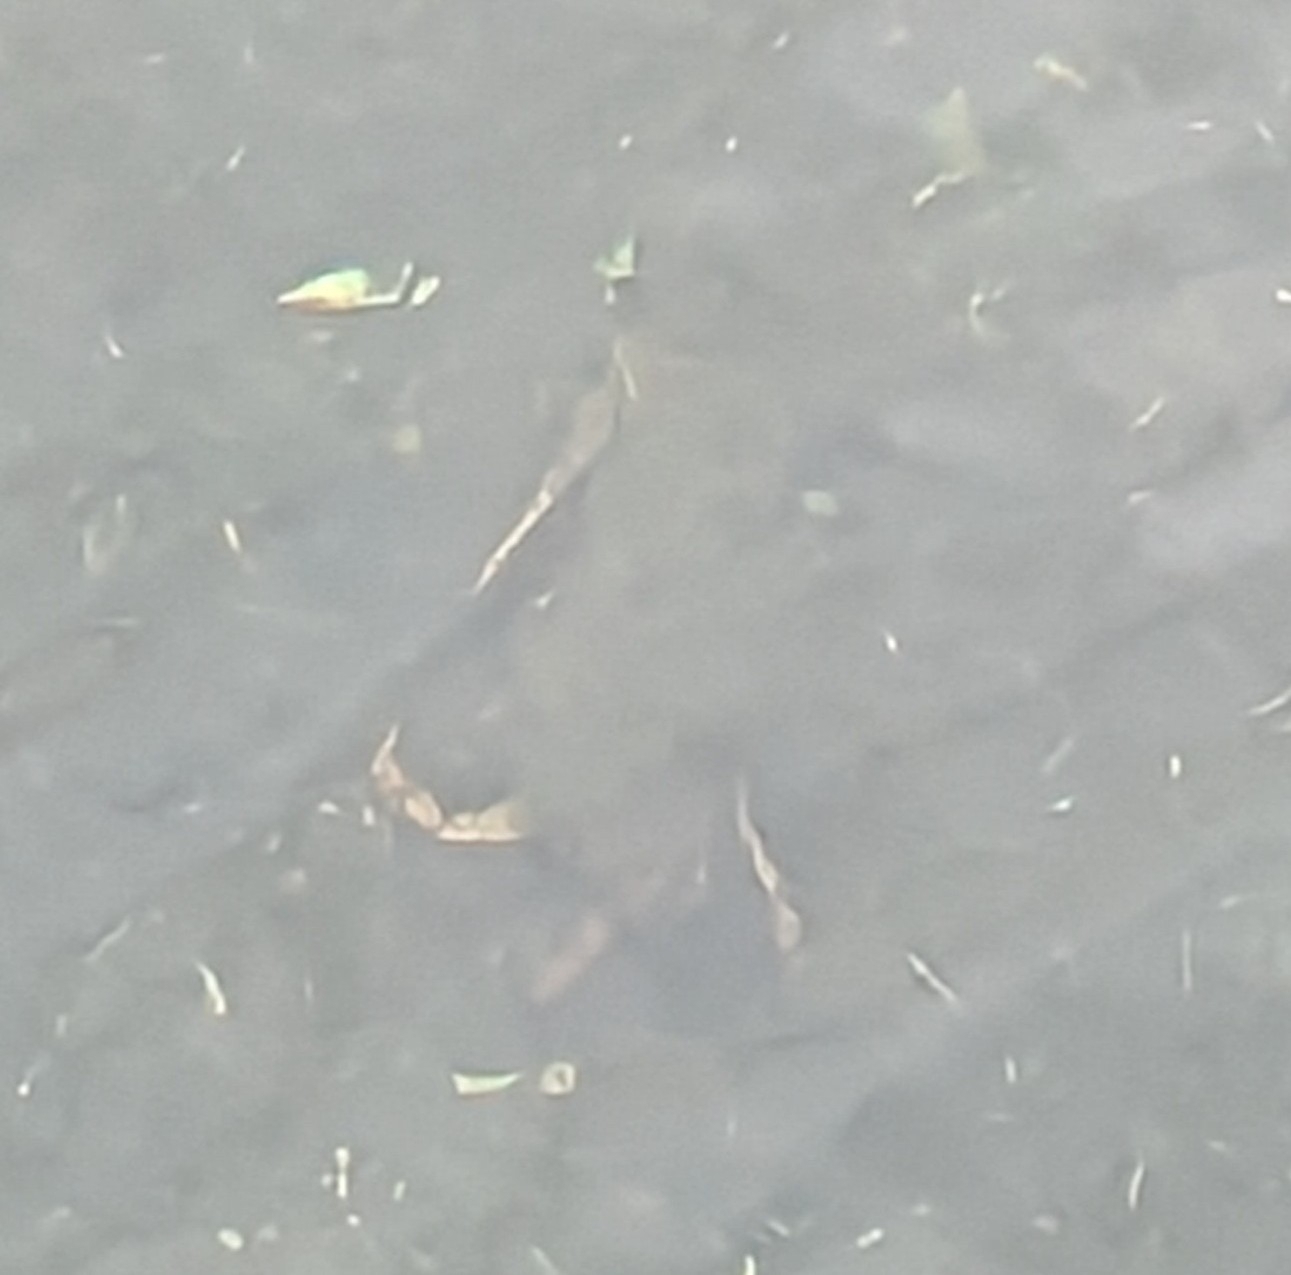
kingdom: Animalia
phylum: Arthropoda
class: Malacostraca
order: Decapoda
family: Cancridae
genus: Metacarcinus
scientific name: Metacarcinus novaezelandiae
